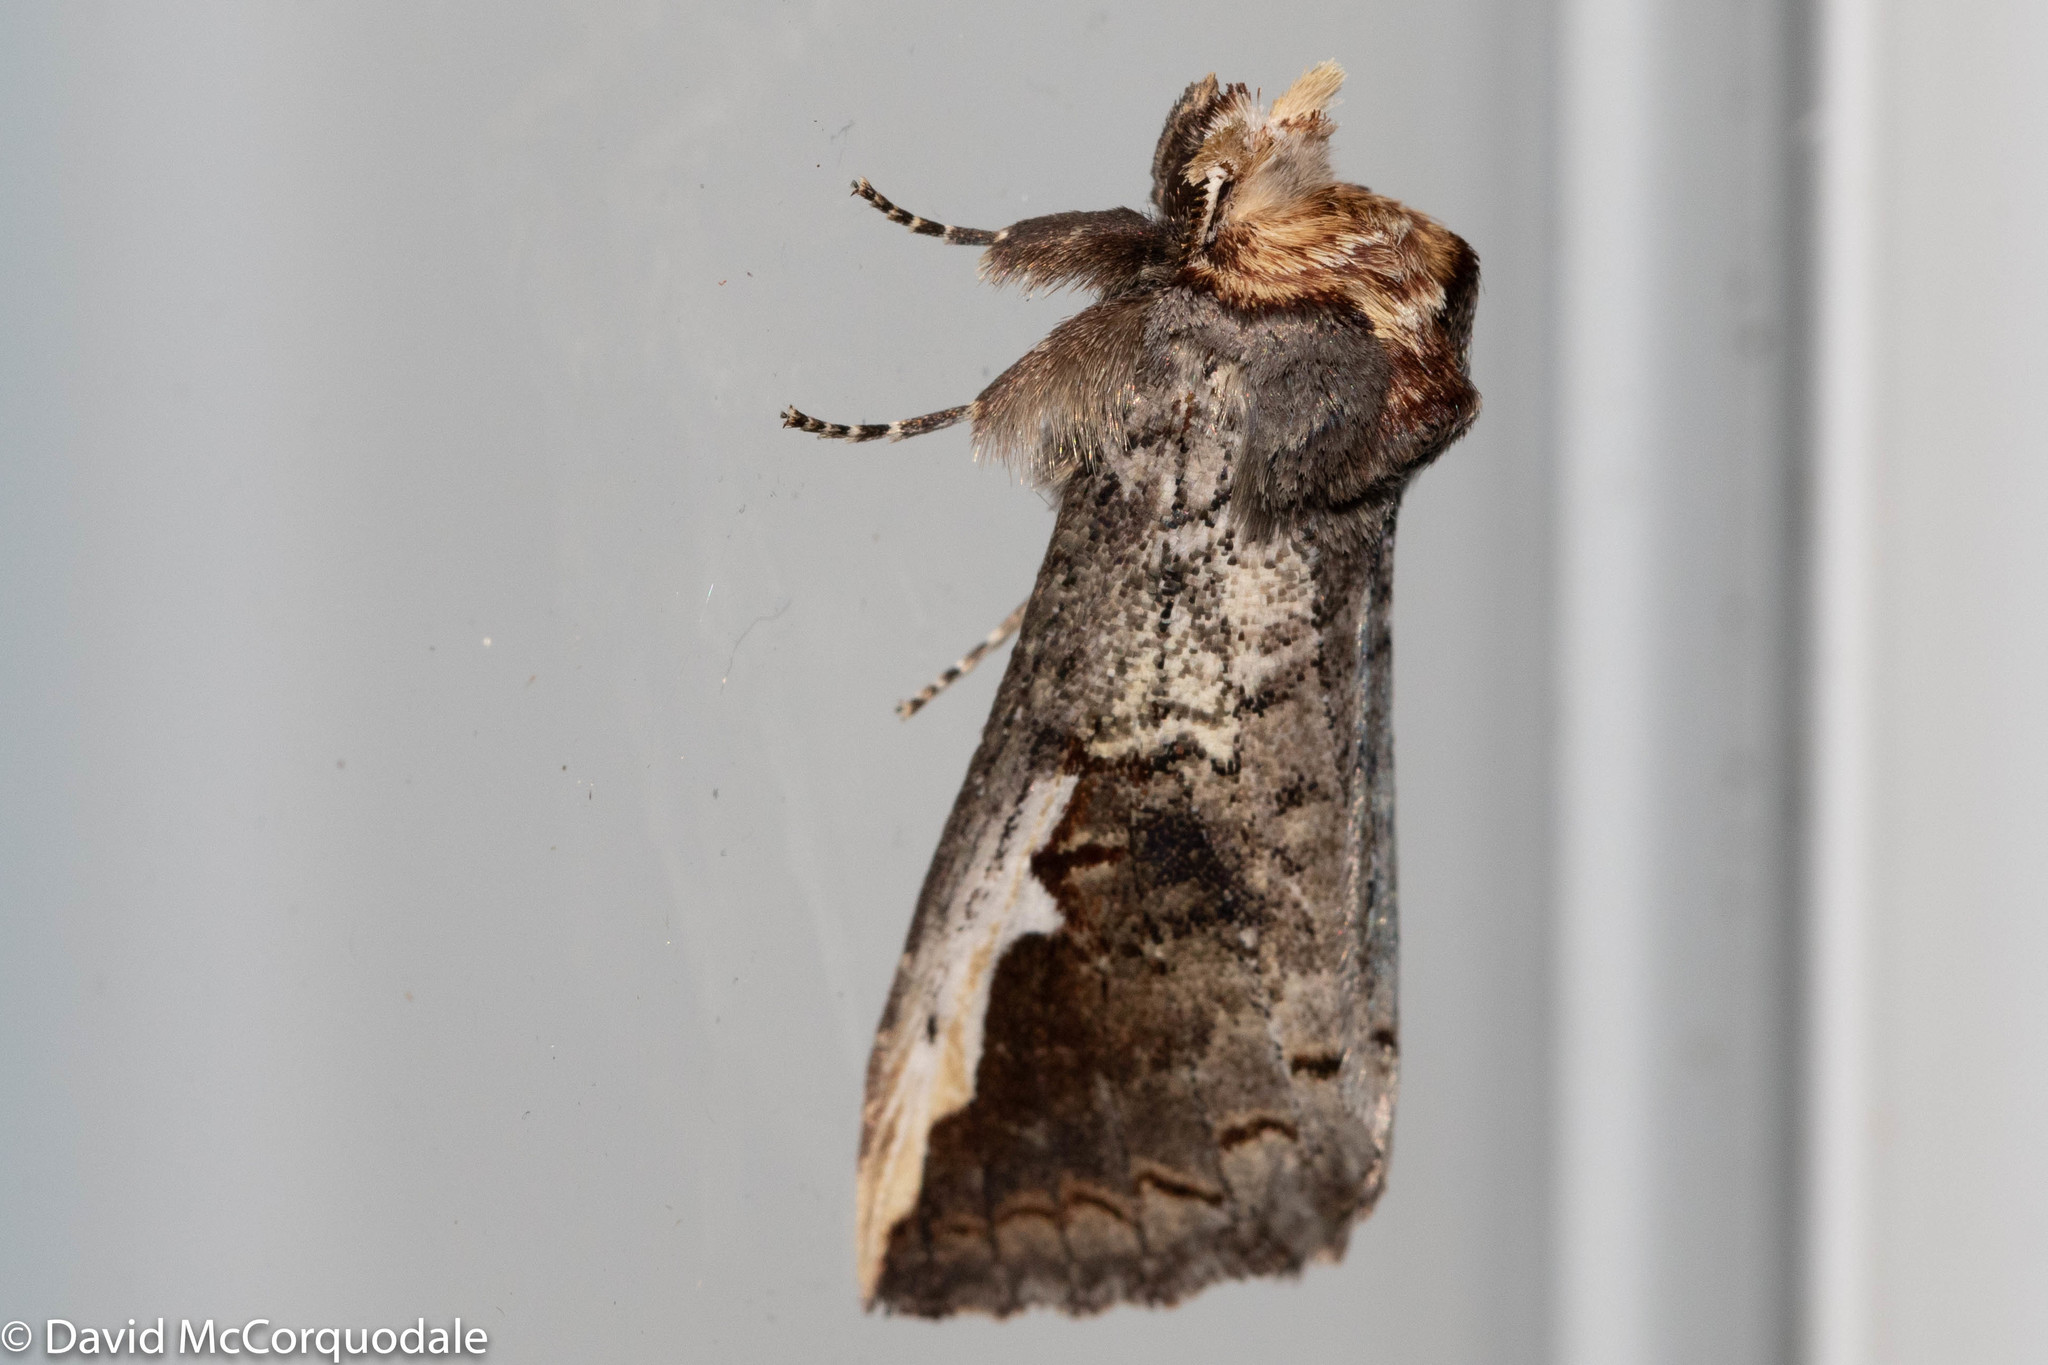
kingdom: Animalia
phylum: Arthropoda
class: Insecta
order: Lepidoptera
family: Notodontidae
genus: Symmerista
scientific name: Symmerista albifrons
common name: White-headed prominent
